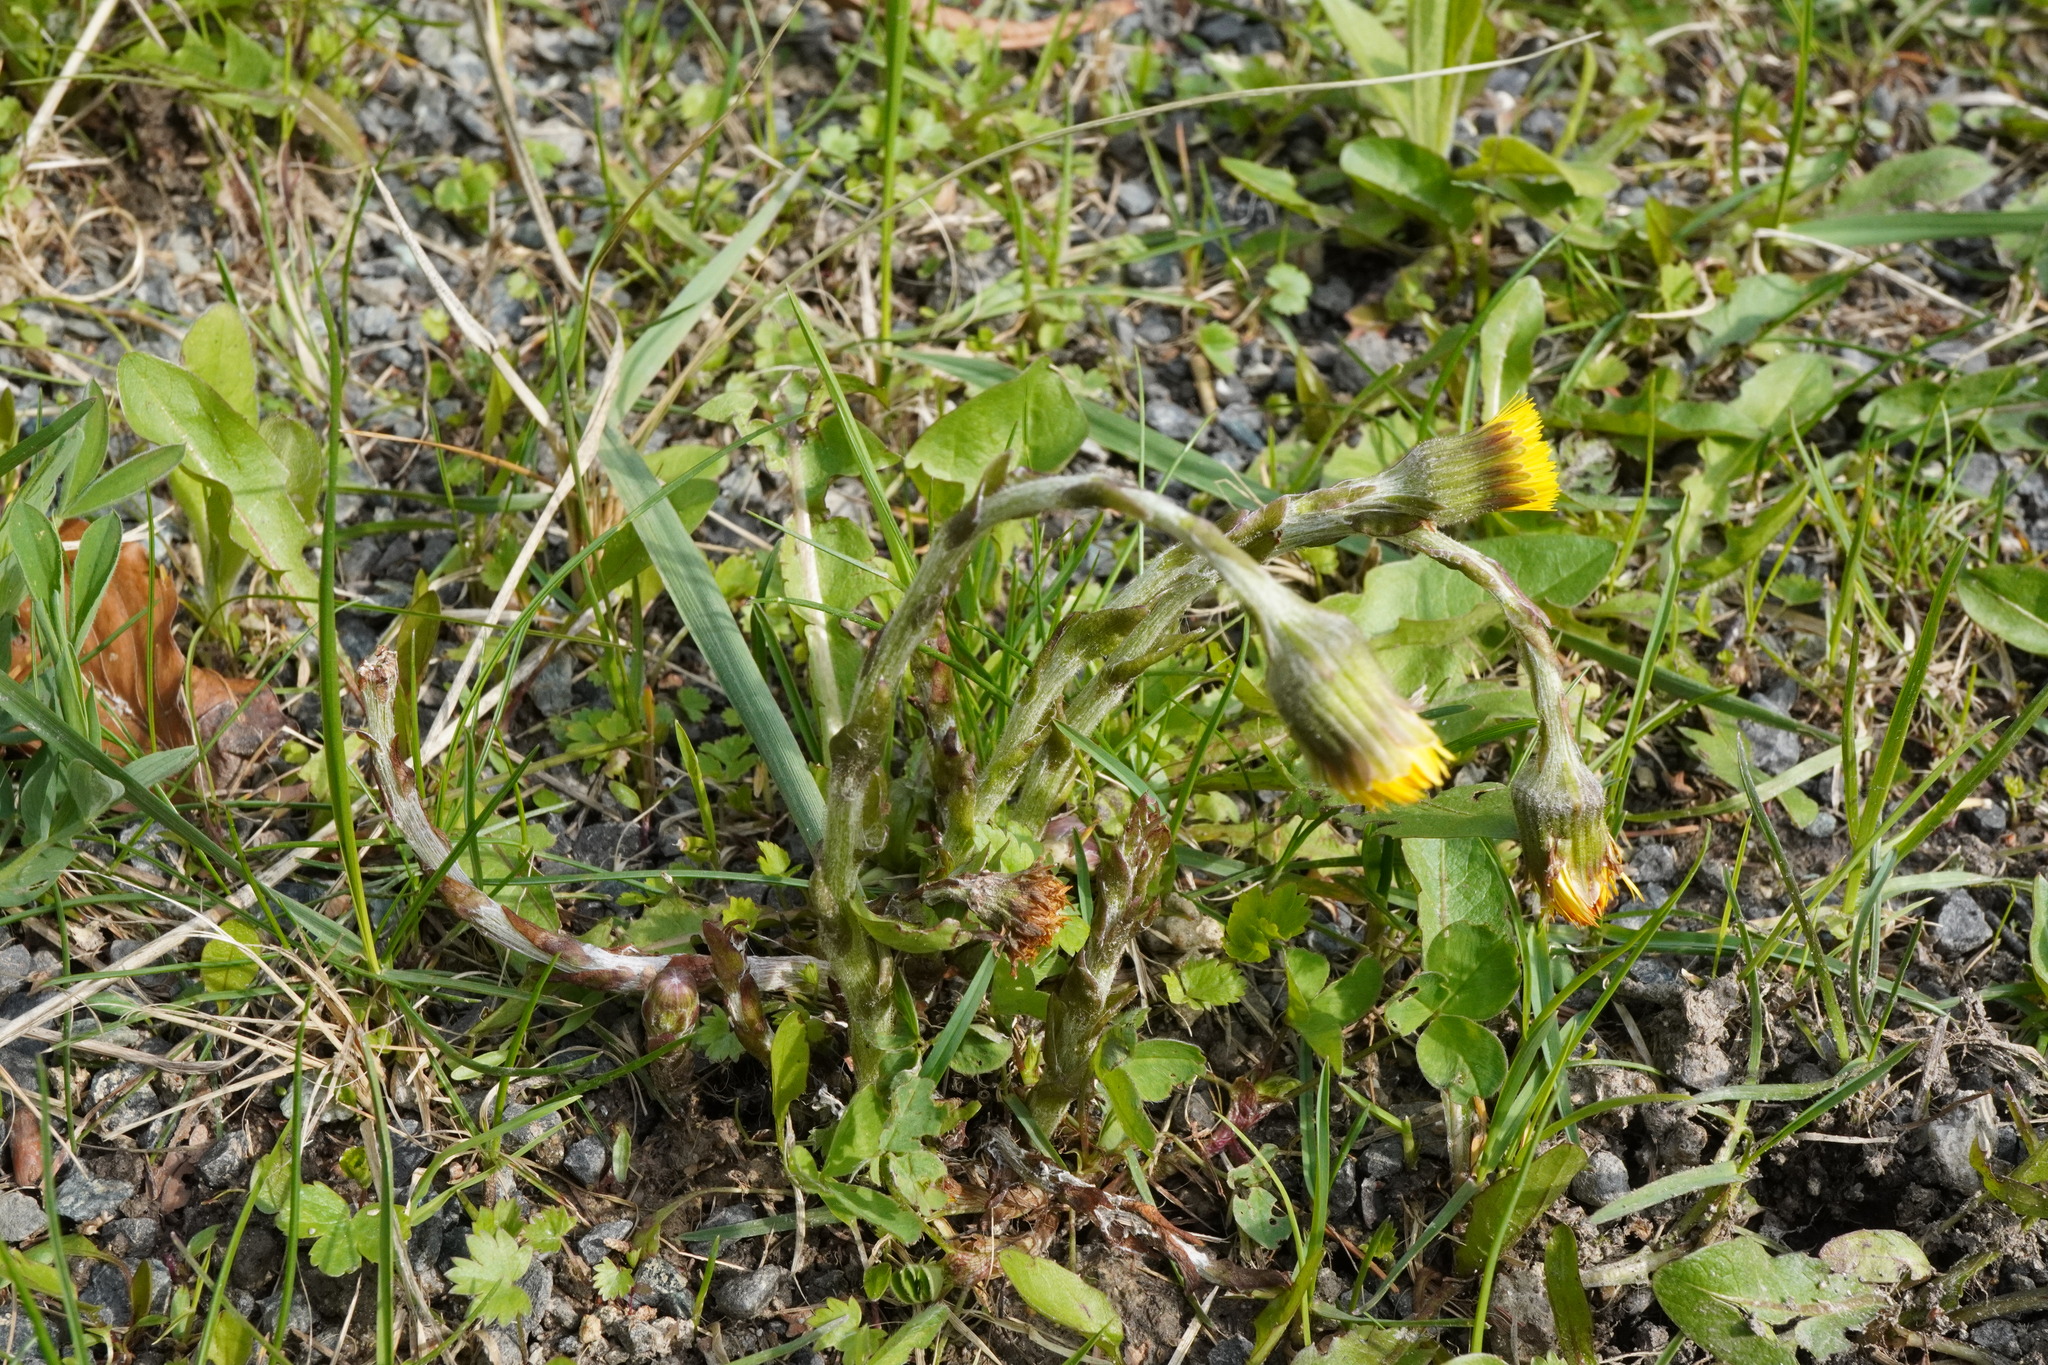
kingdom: Plantae
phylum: Tracheophyta
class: Magnoliopsida
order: Asterales
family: Asteraceae
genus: Tussilago
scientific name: Tussilago farfara
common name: Coltsfoot
